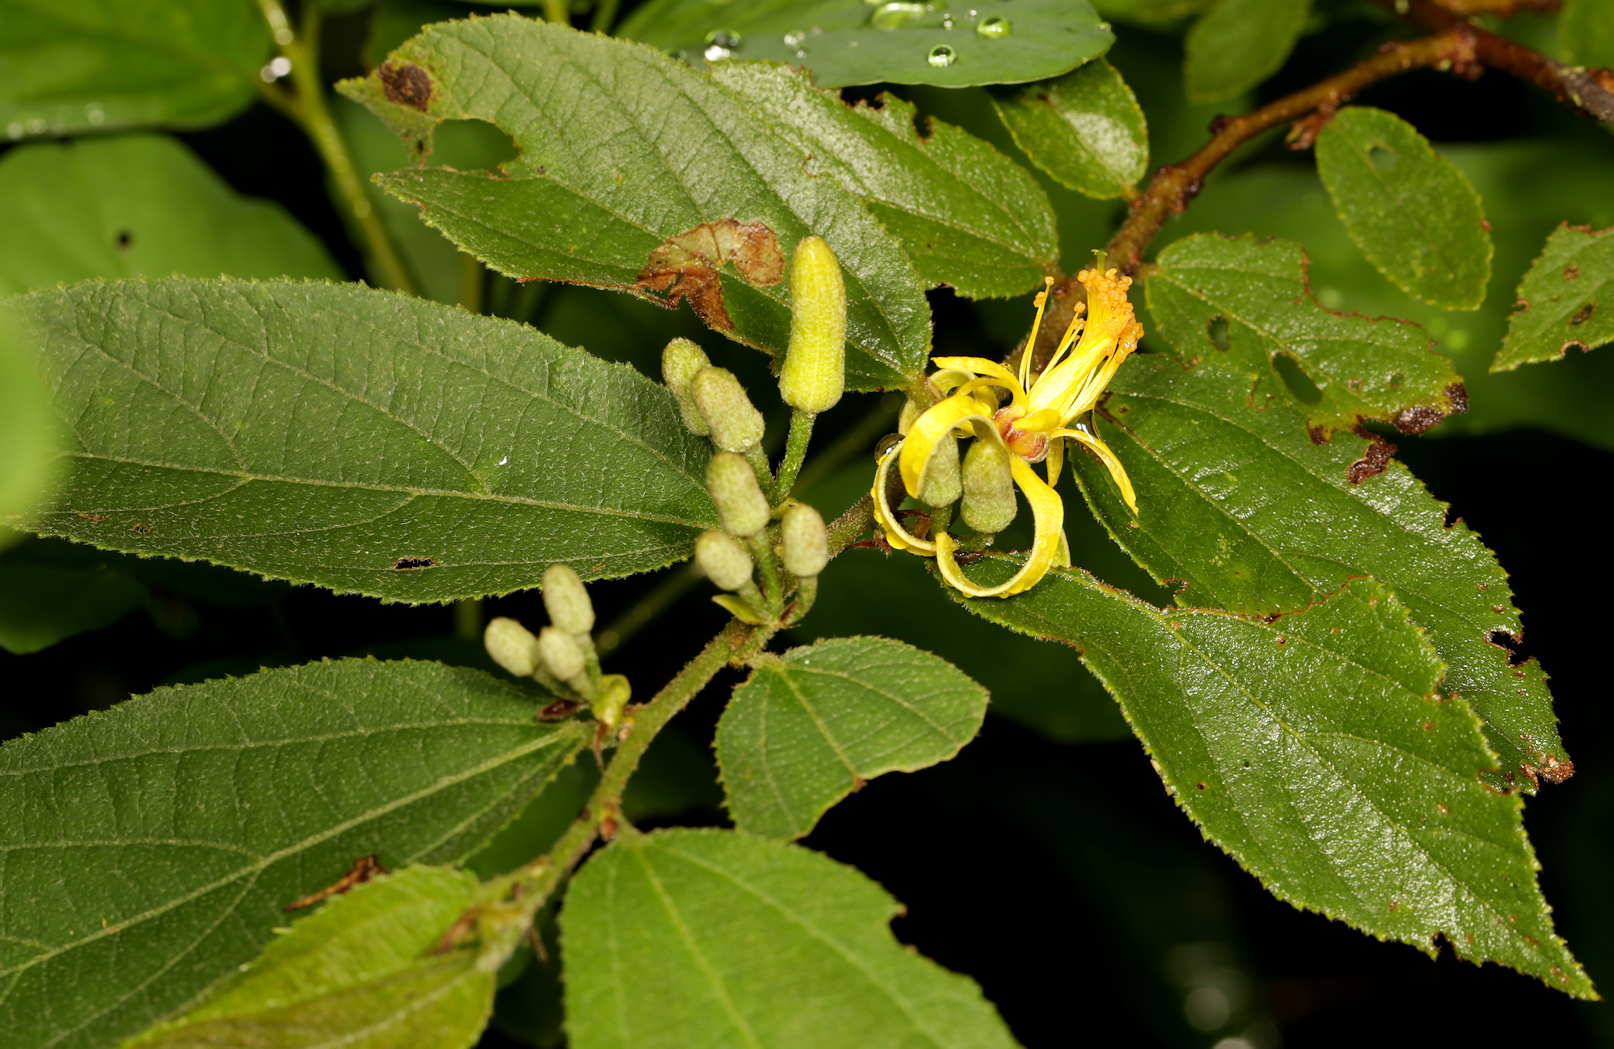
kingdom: Plantae
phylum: Tracheophyta
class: Magnoliopsida
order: Malvales
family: Malvaceae
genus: Grewia
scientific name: Grewia flavescens
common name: Sandpaper raisin
